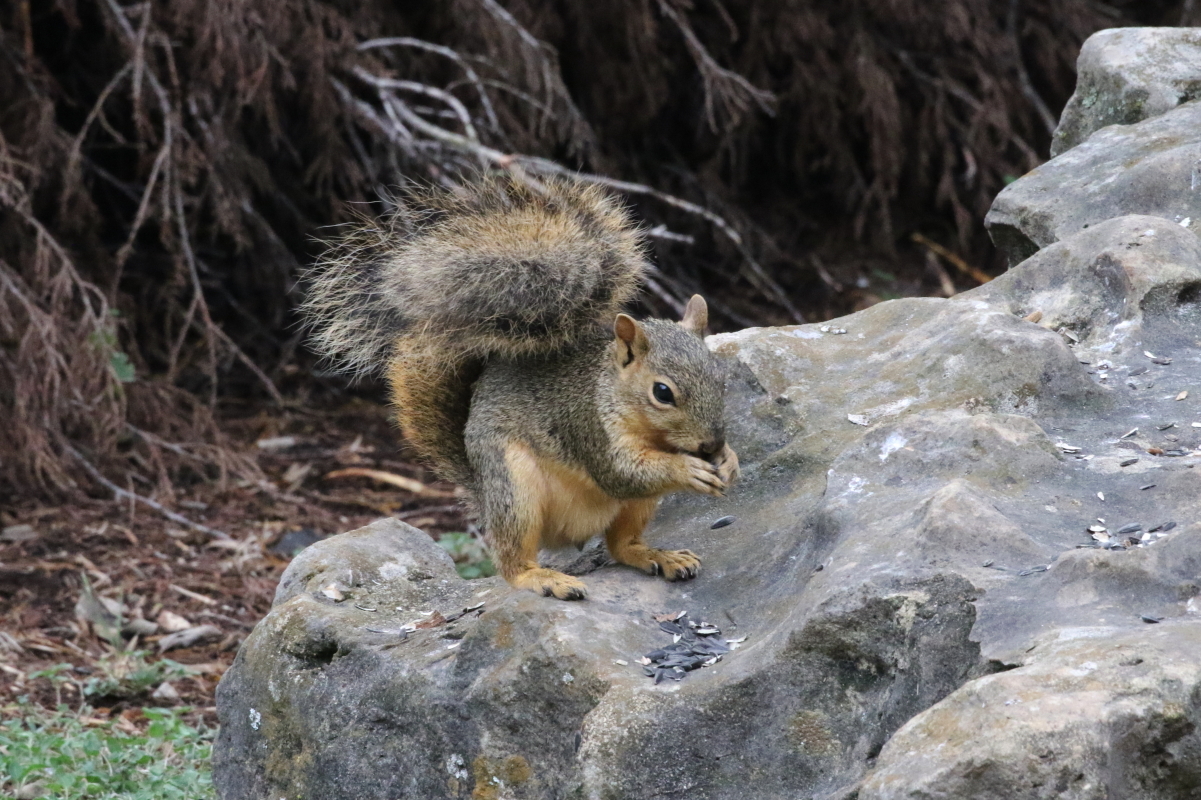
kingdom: Animalia
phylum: Chordata
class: Mammalia
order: Rodentia
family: Sciuridae
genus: Sciurus
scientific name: Sciurus niger
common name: Fox squirrel
